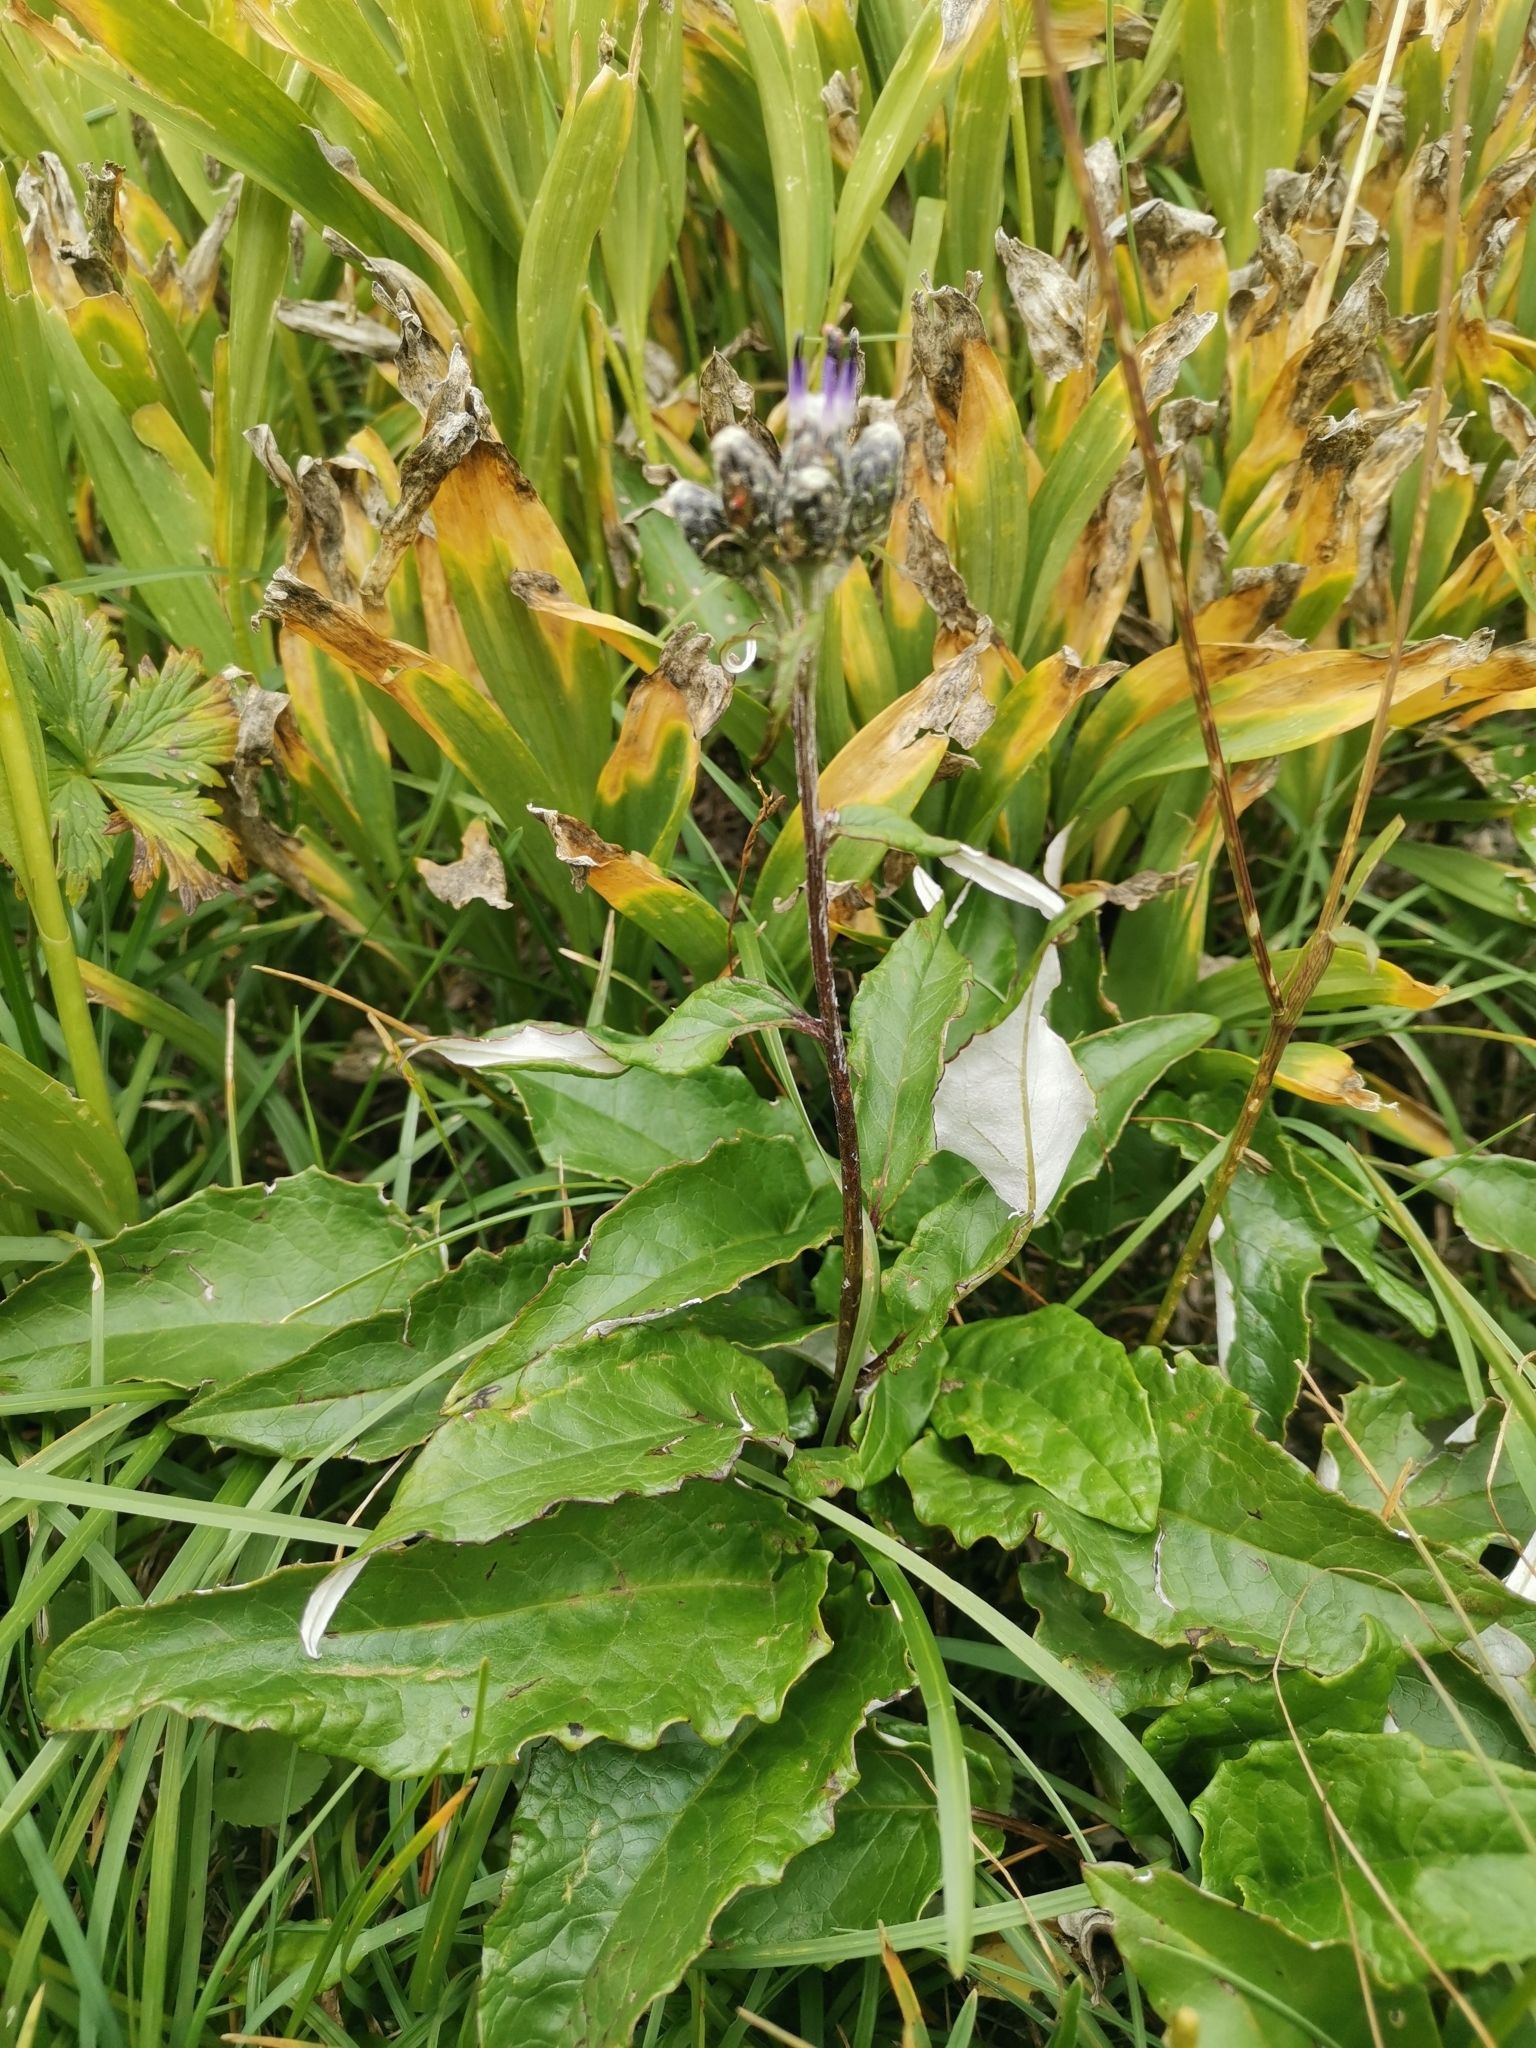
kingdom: Plantae
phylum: Tracheophyta
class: Magnoliopsida
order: Asterales
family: Asteraceae
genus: Saussurea
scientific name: Saussurea discolor
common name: Heart-leaved saussurea
